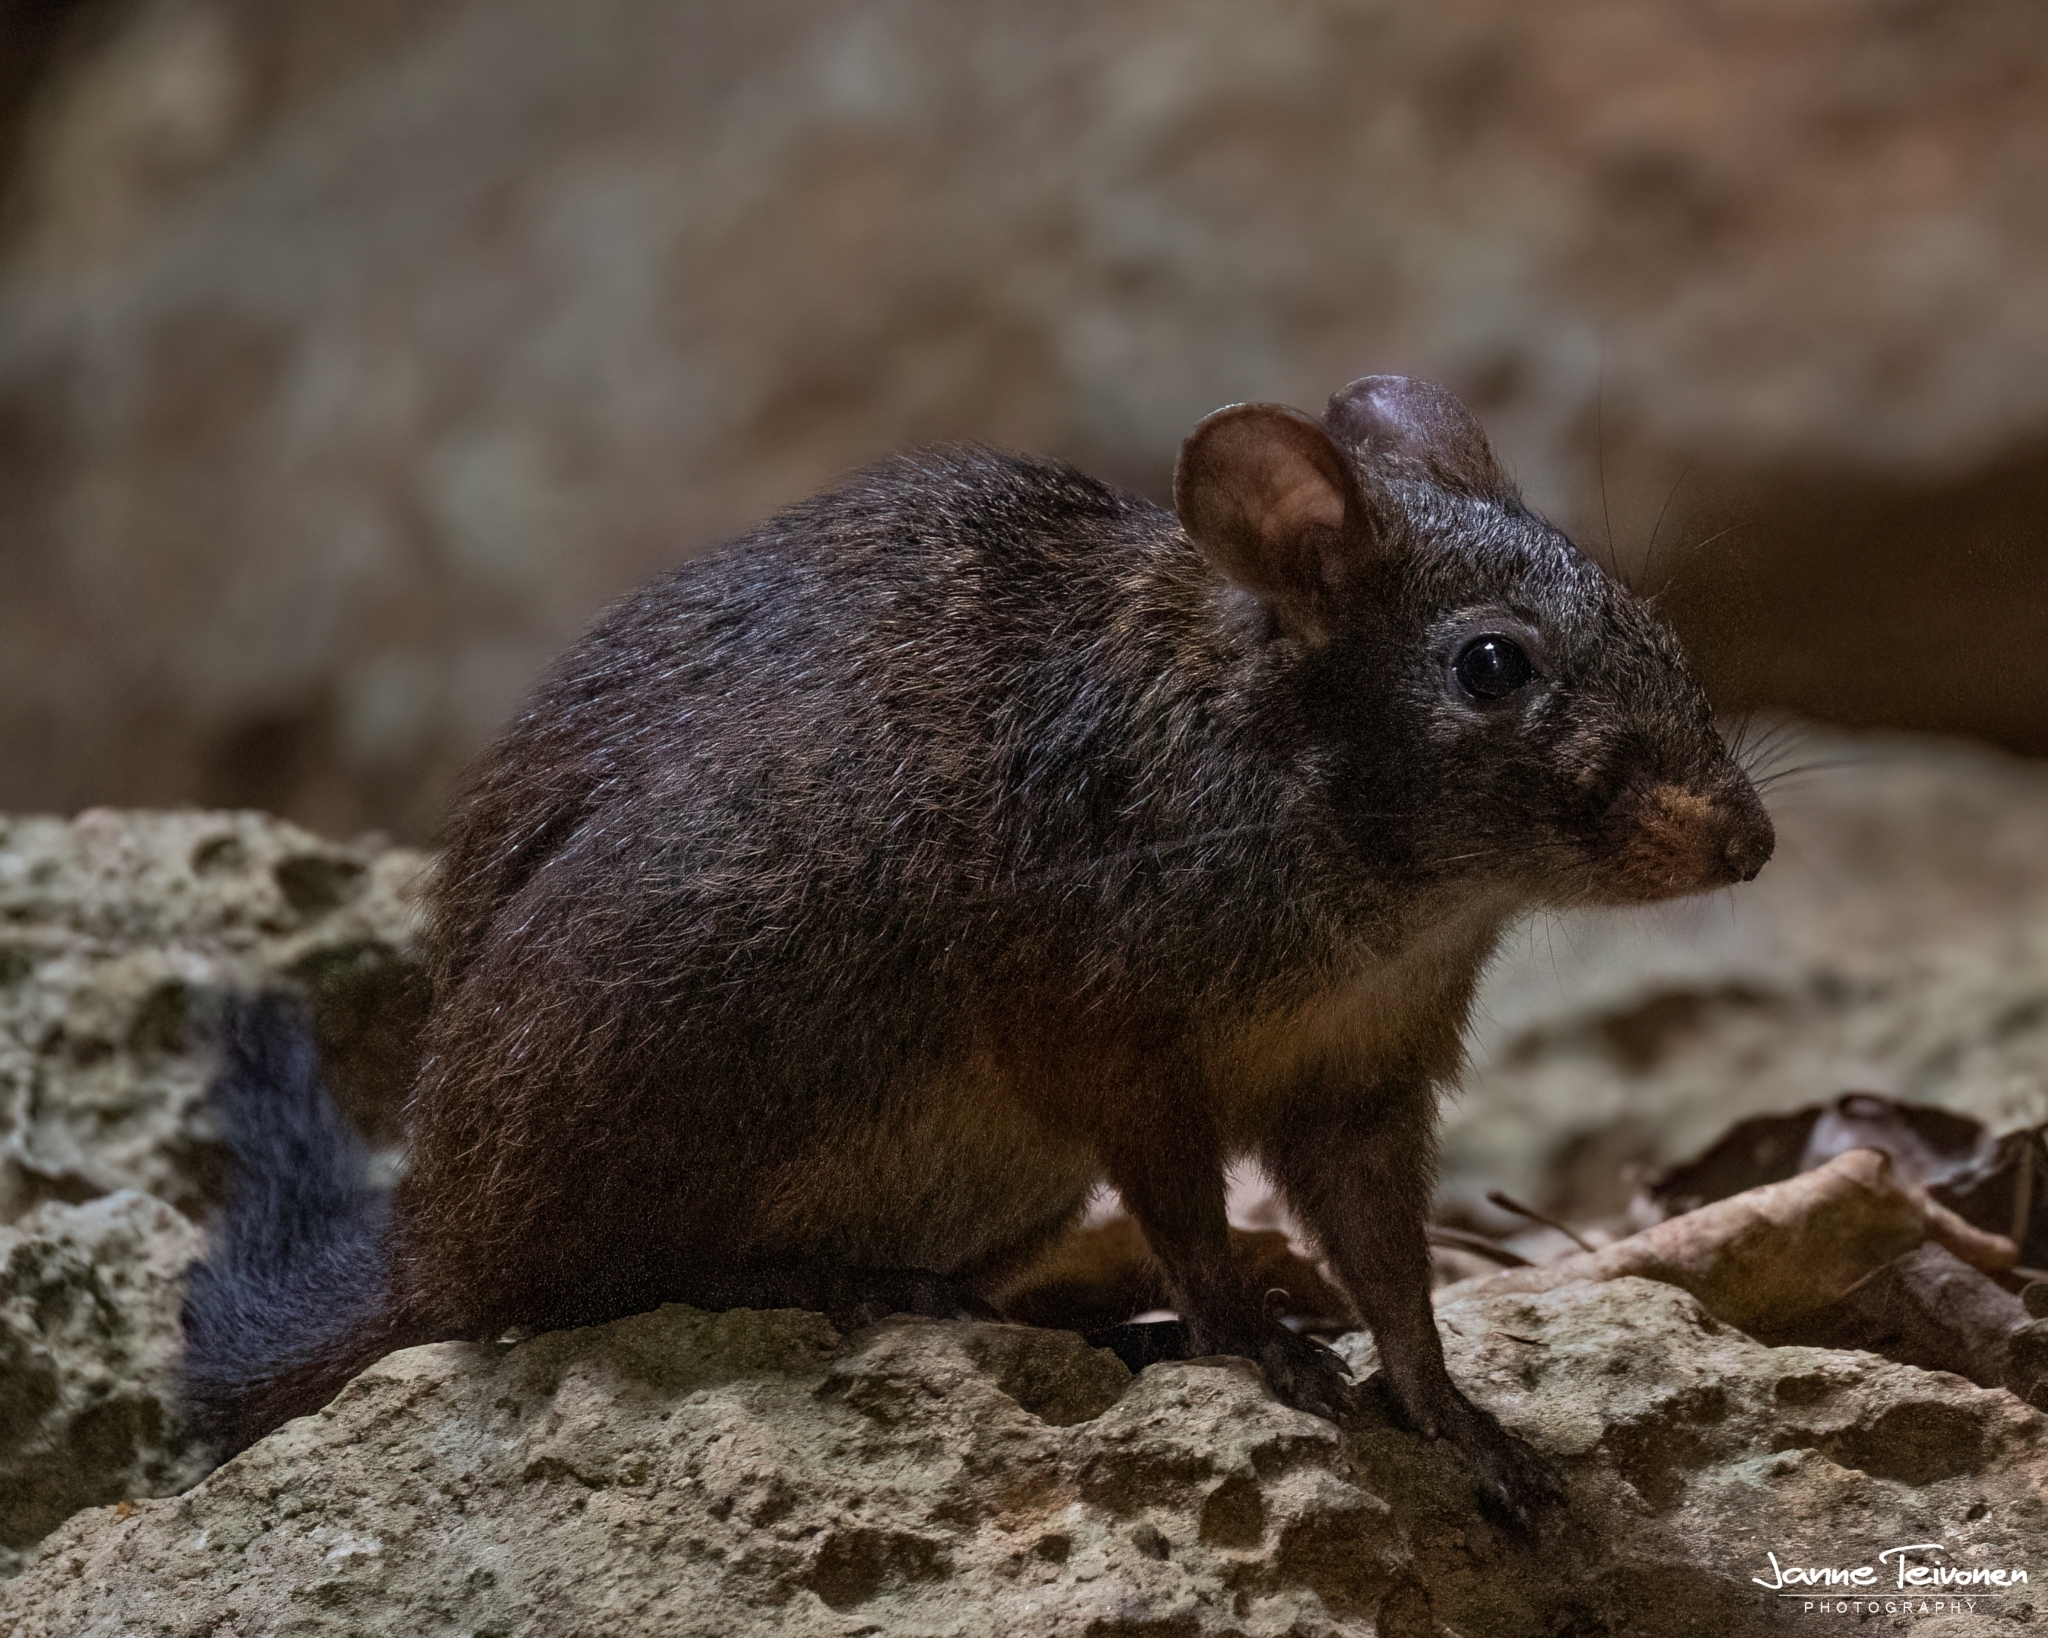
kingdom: Animalia
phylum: Chordata
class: Mammalia
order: Rodentia
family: Nesomyidae
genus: Nesomys
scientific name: Nesomys lambertoni
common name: Western nesomys
